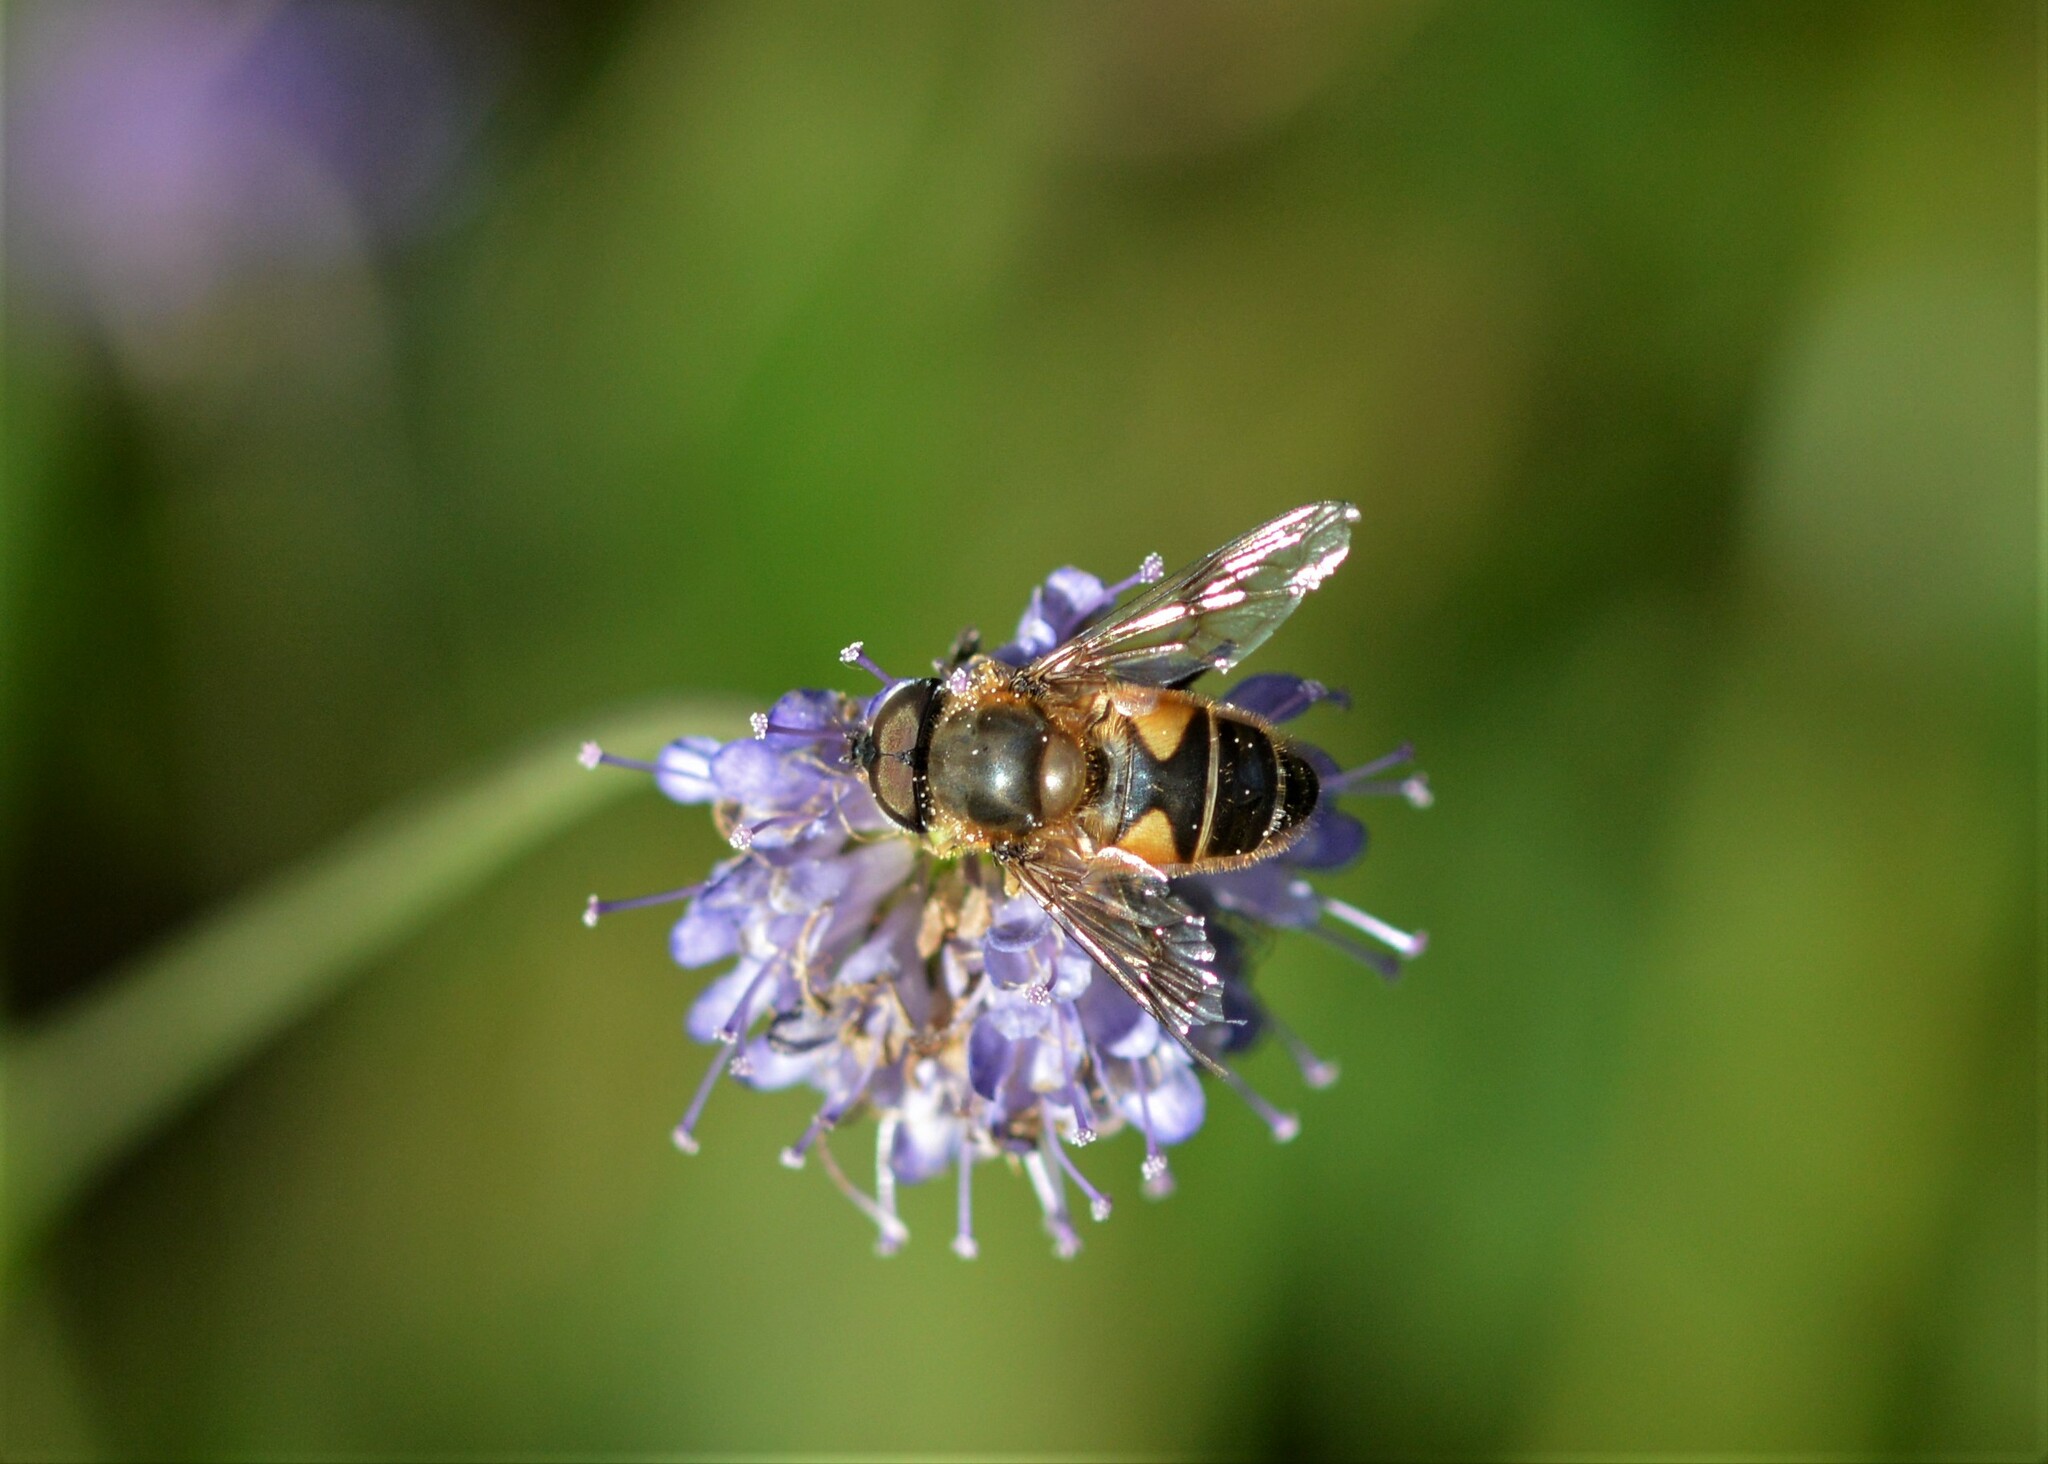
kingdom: Animalia
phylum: Arthropoda
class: Insecta
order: Diptera
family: Syrphidae
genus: Cheilosia
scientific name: Cheilosia morio
